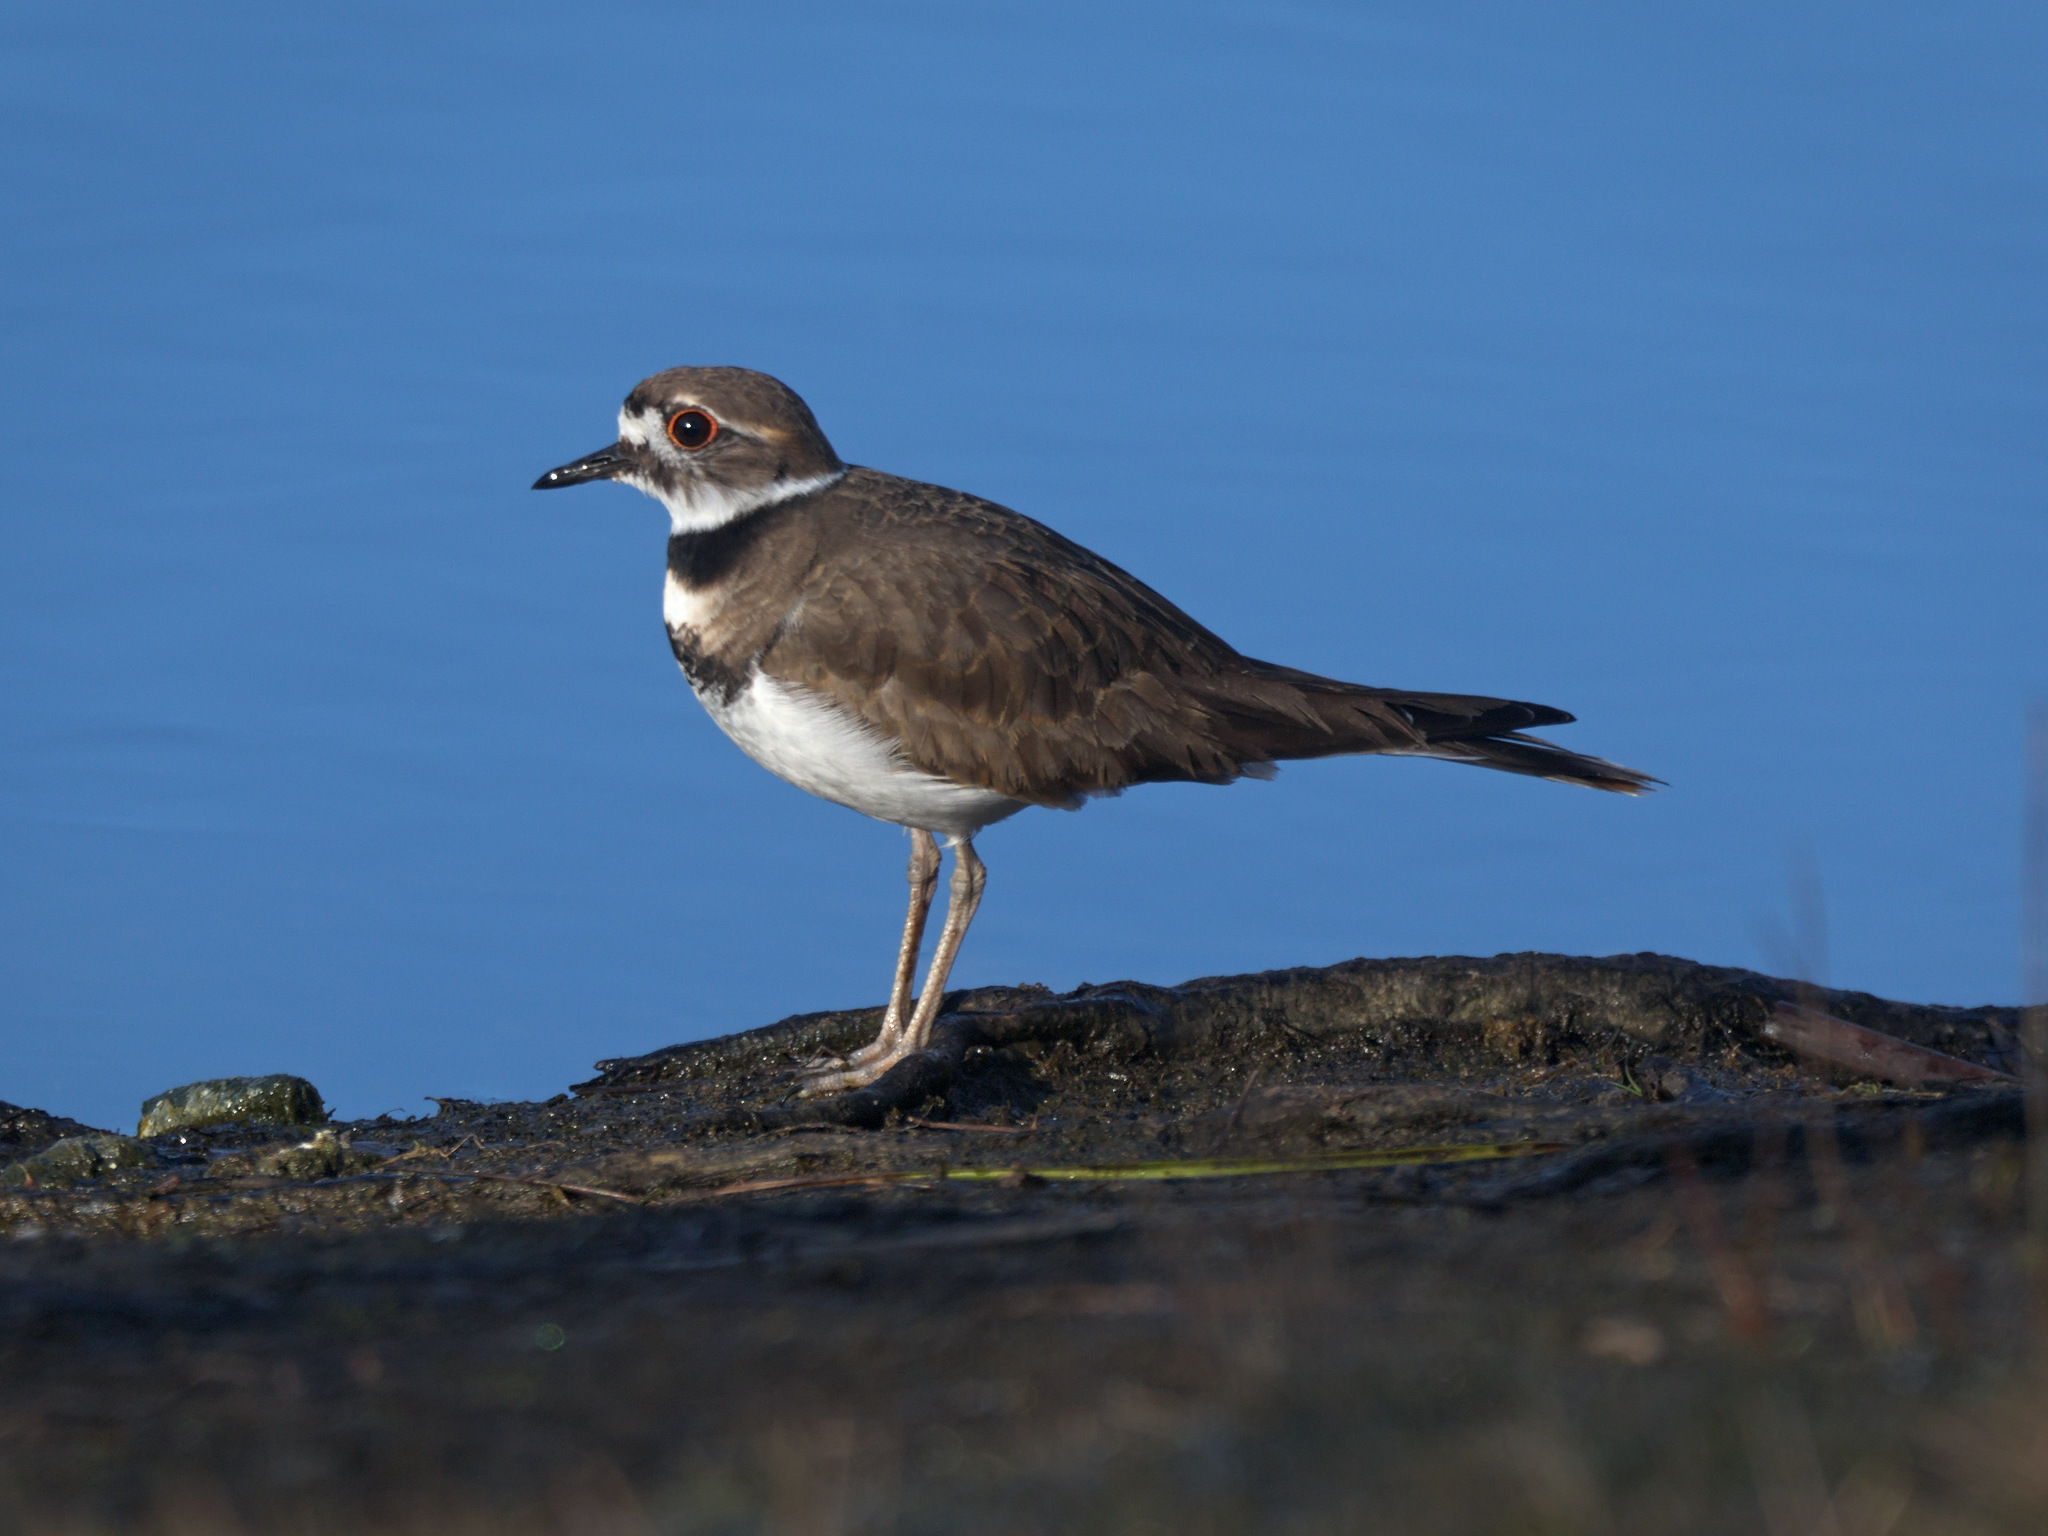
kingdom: Animalia
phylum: Chordata
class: Aves
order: Charadriiformes
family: Charadriidae
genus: Charadrius
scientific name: Charadrius vociferus
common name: Killdeer
